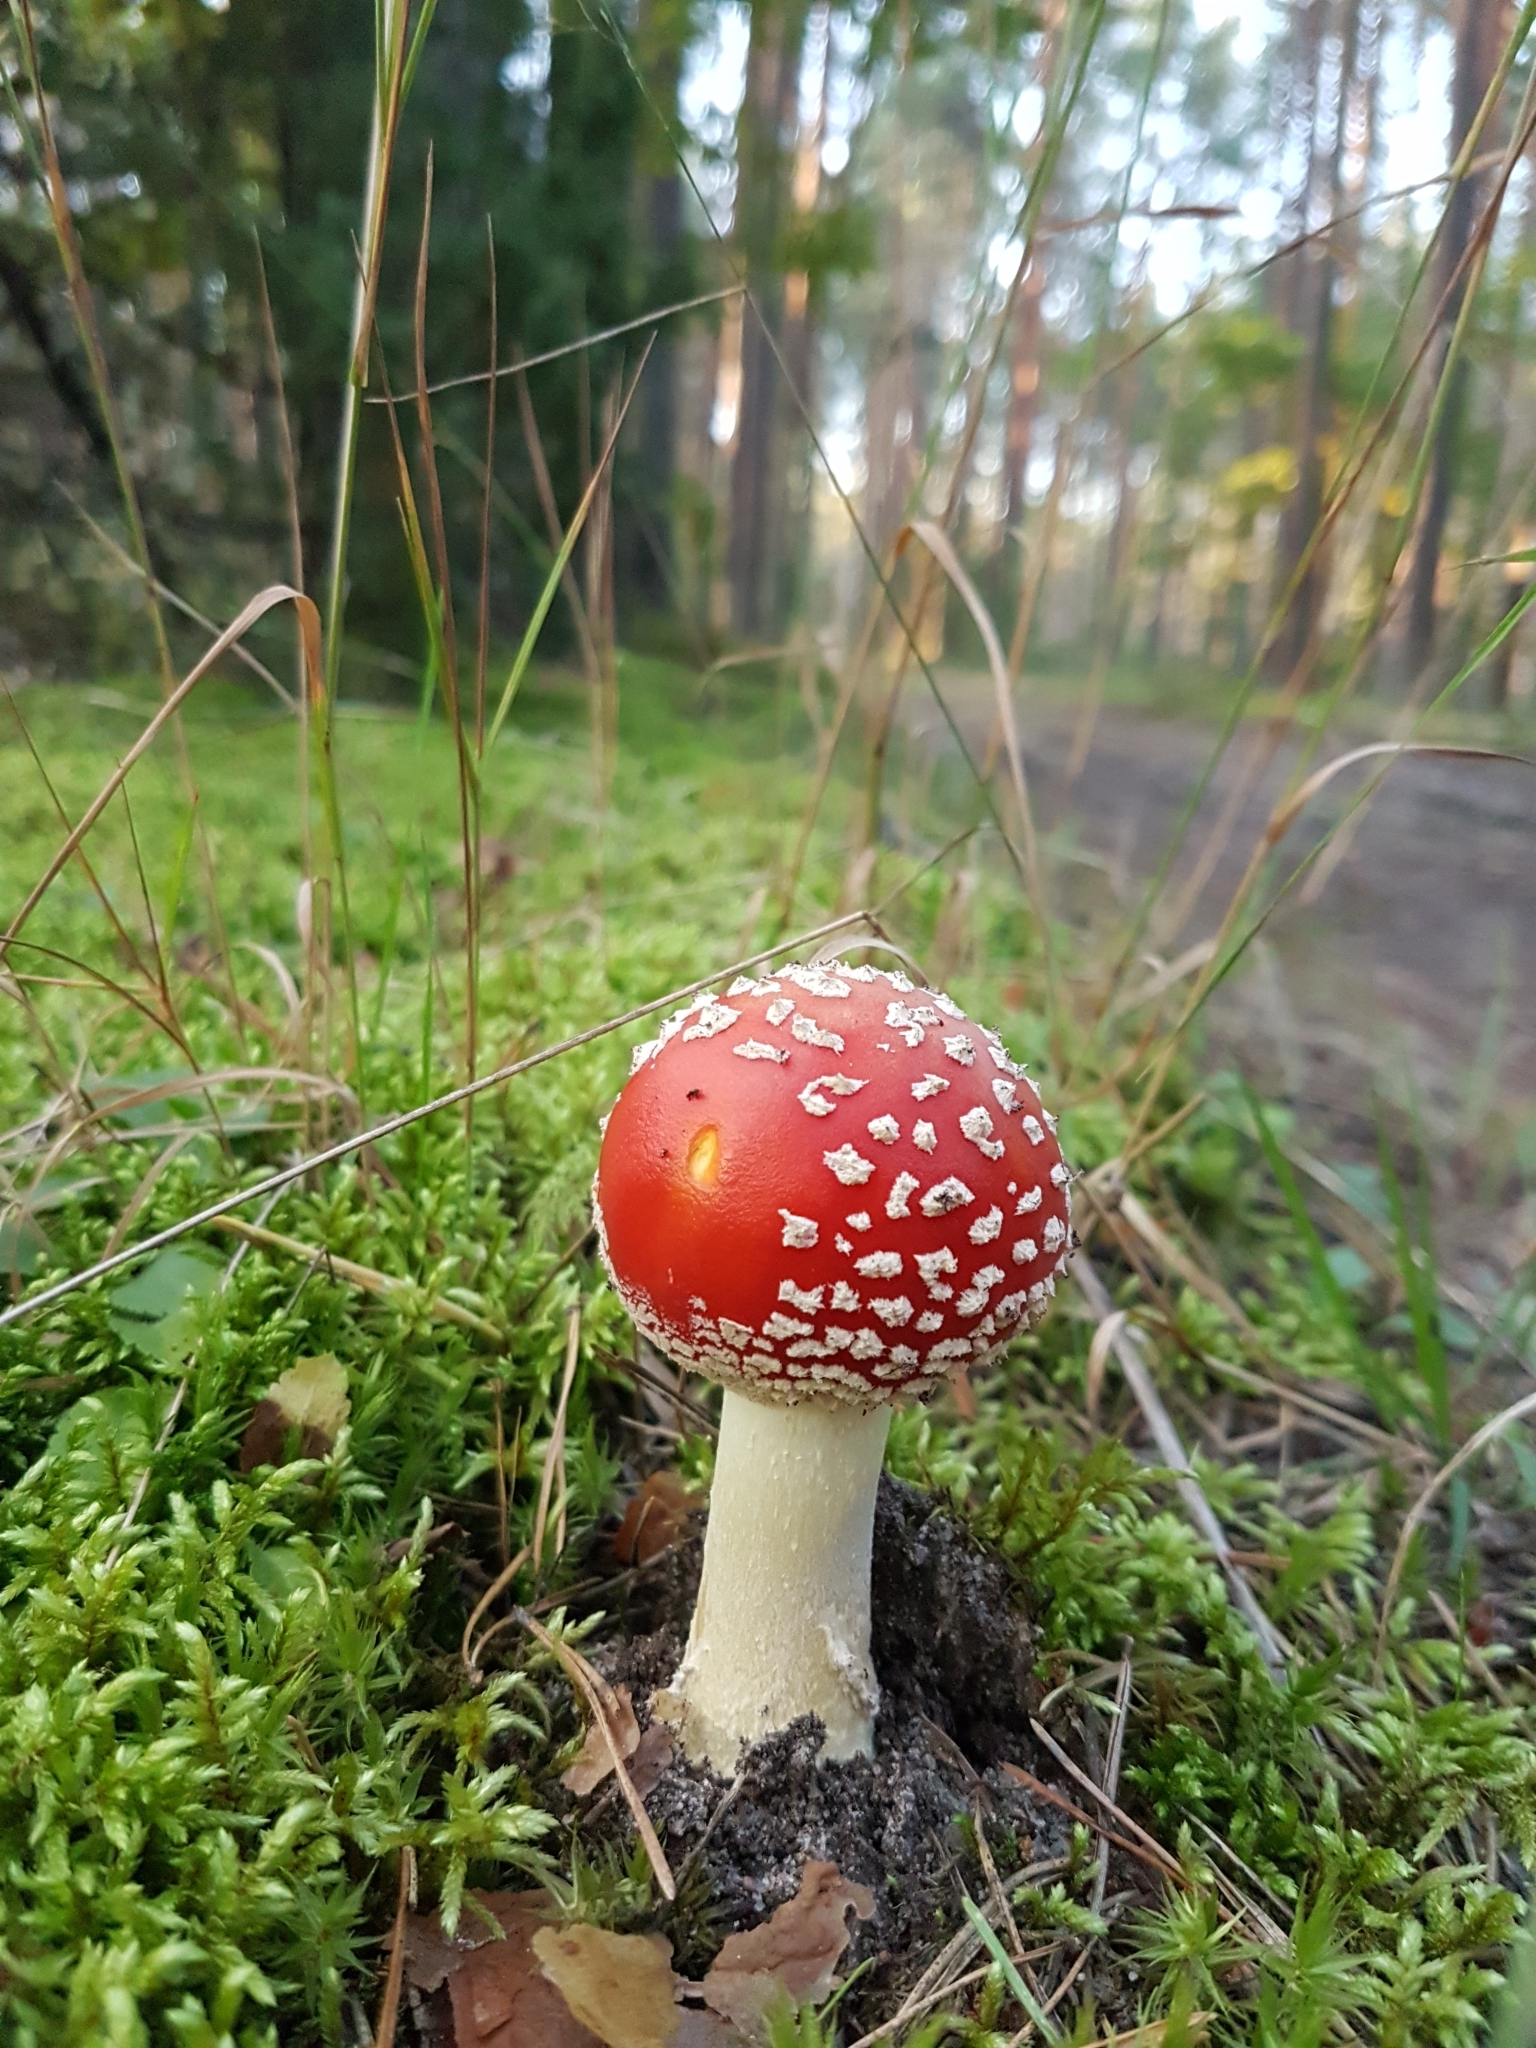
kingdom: Fungi
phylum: Basidiomycota
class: Agaricomycetes
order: Agaricales
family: Amanitaceae
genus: Amanita
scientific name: Amanita muscaria
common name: Fly agaric
